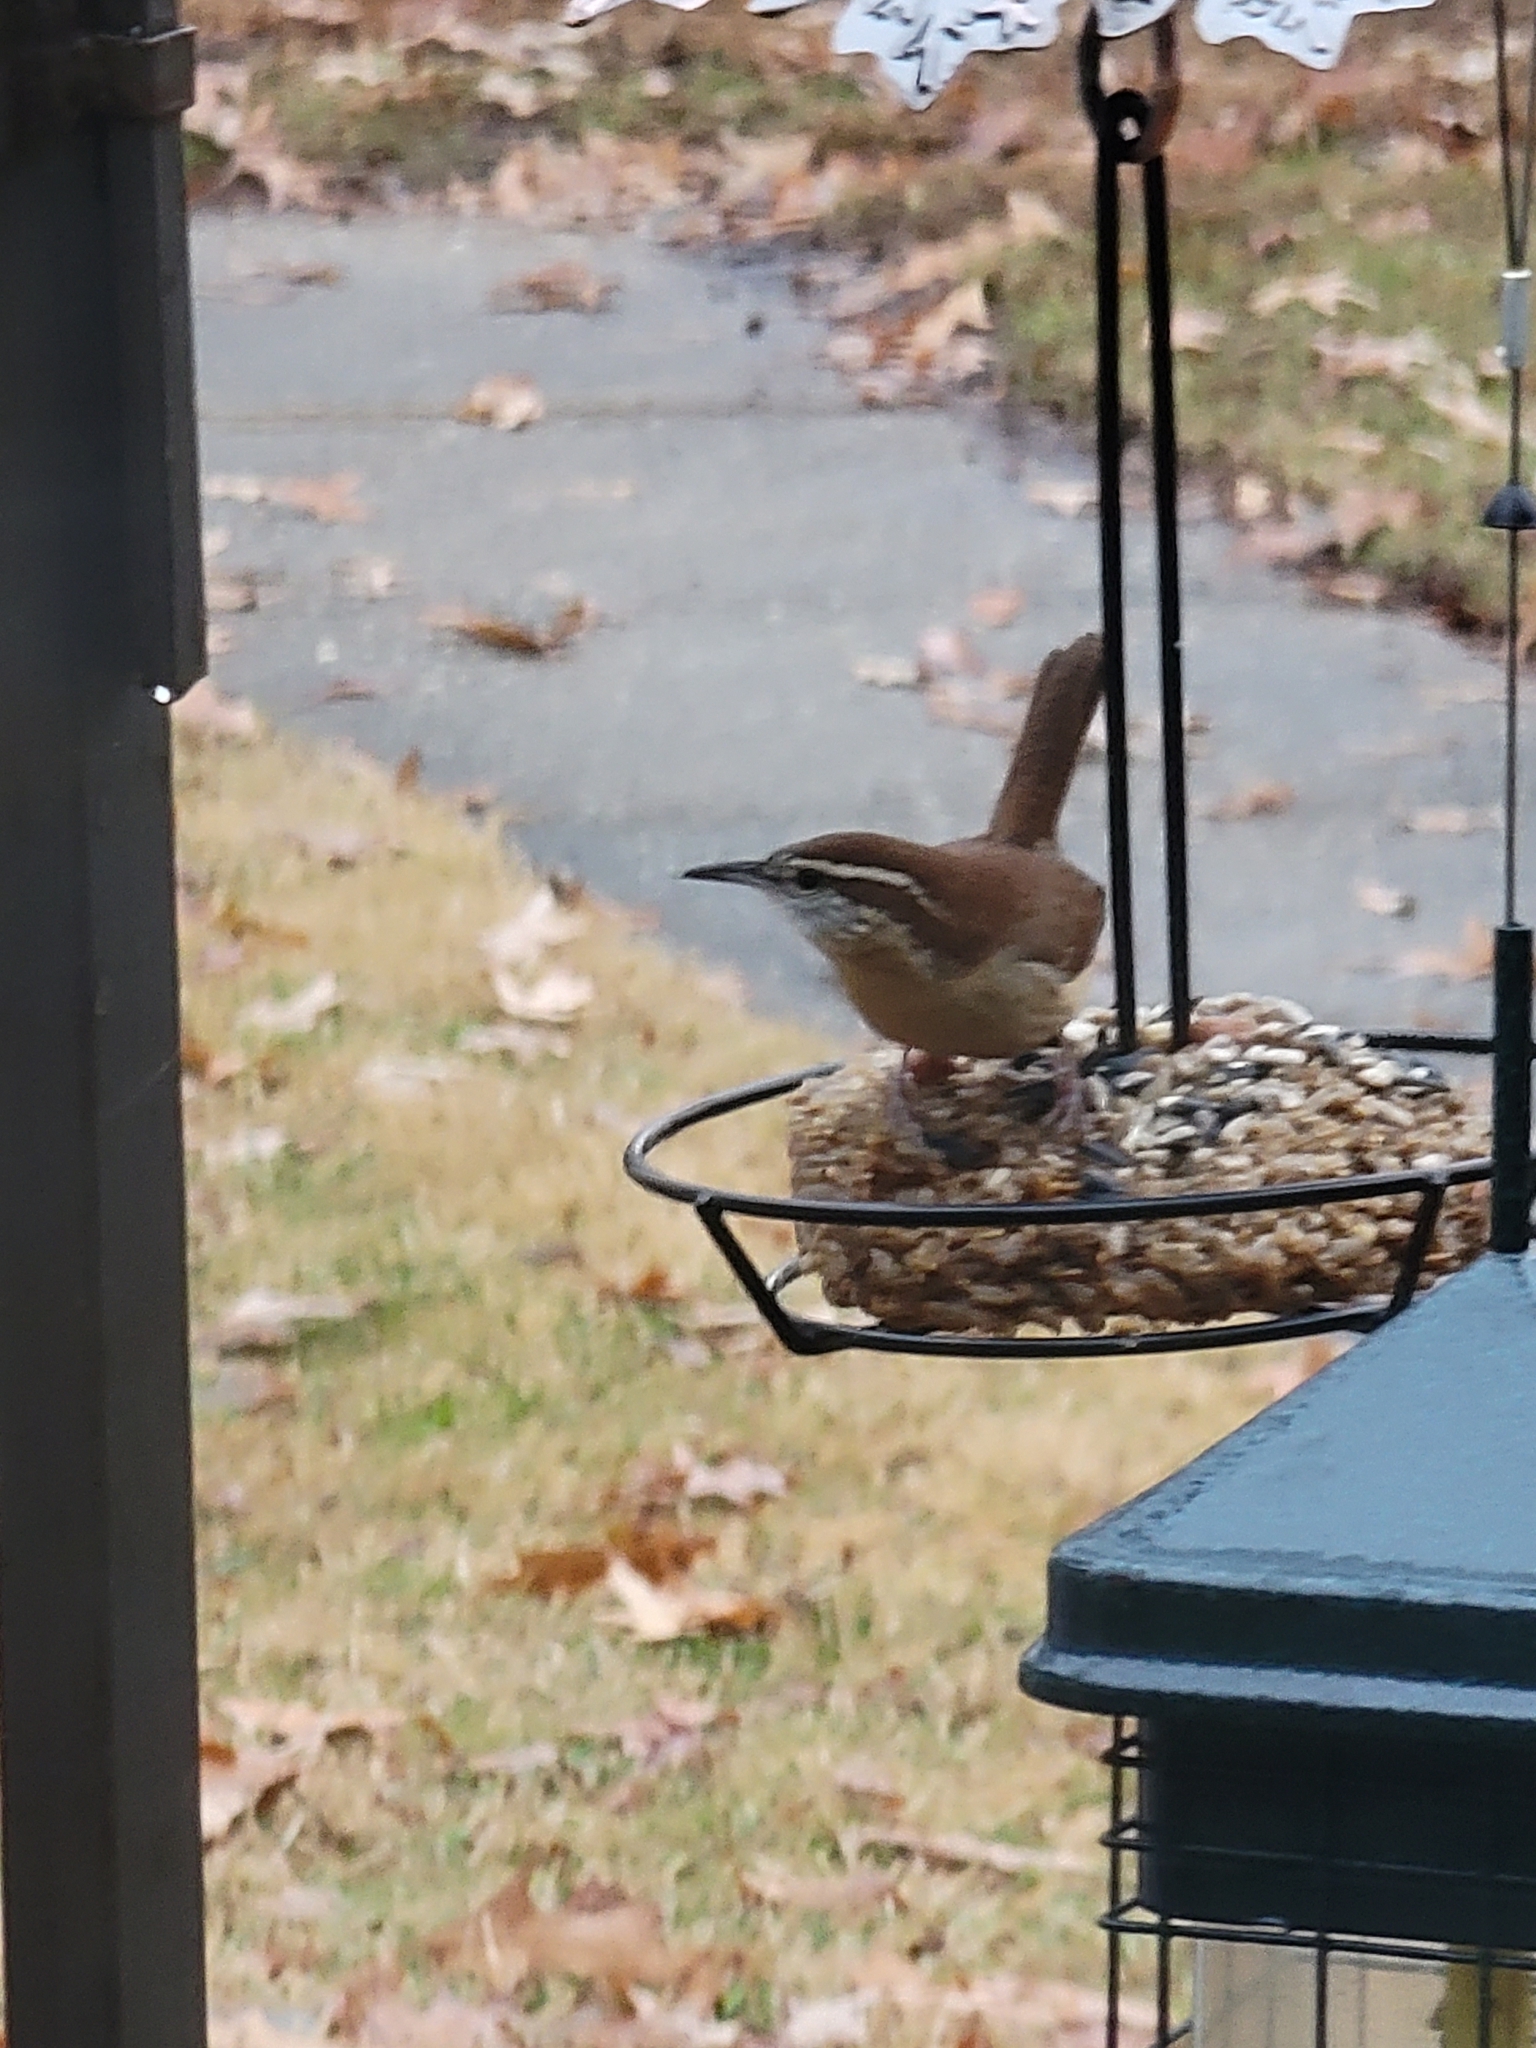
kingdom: Animalia
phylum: Chordata
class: Aves
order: Passeriformes
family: Troglodytidae
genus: Thryothorus
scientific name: Thryothorus ludovicianus
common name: Carolina wren
